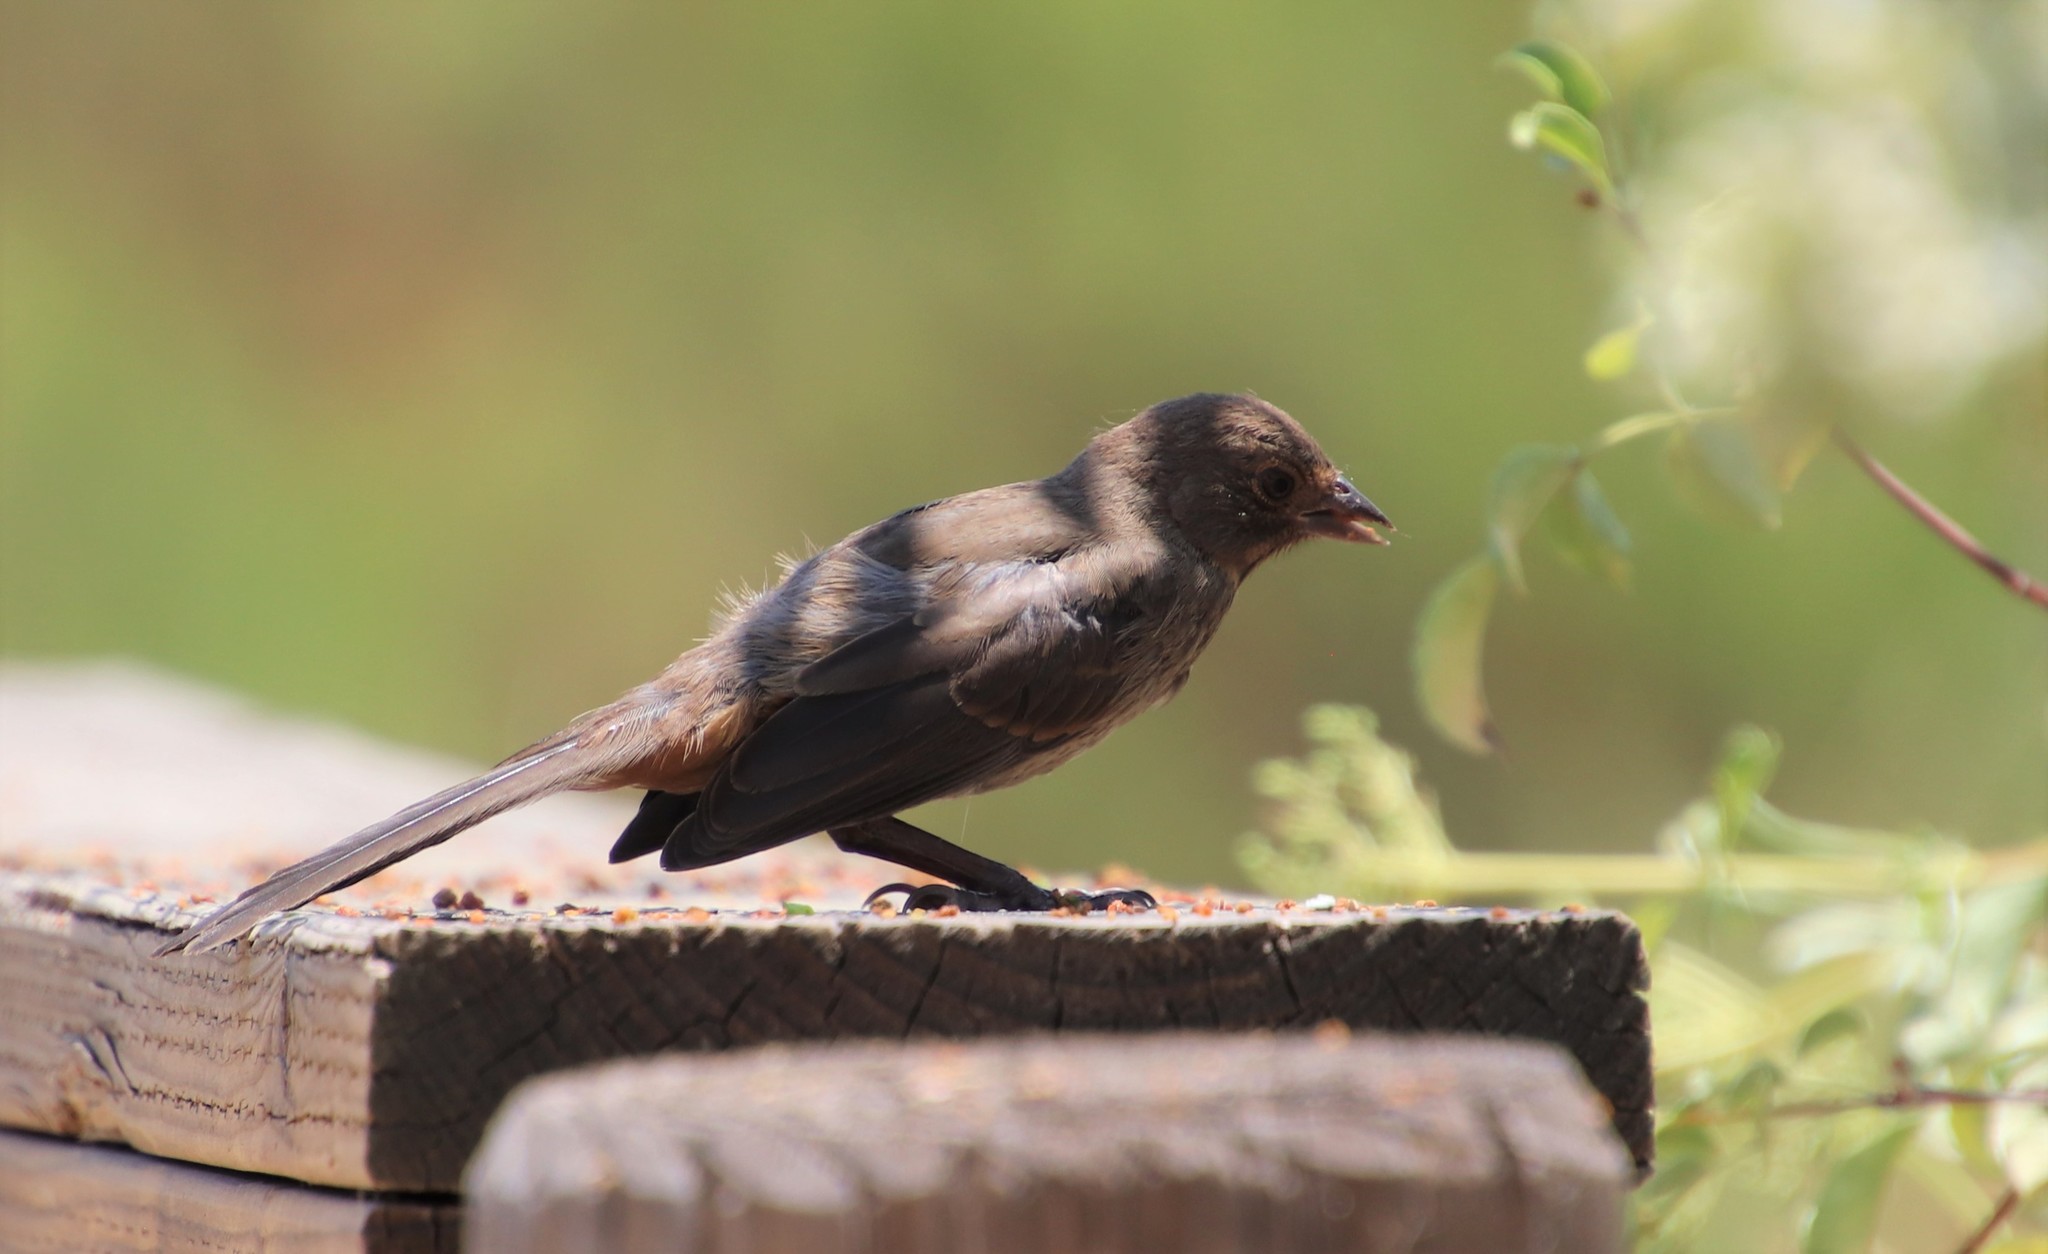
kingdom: Animalia
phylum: Chordata
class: Aves
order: Passeriformes
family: Passerellidae
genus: Melozone
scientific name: Melozone crissalis
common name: California towhee
